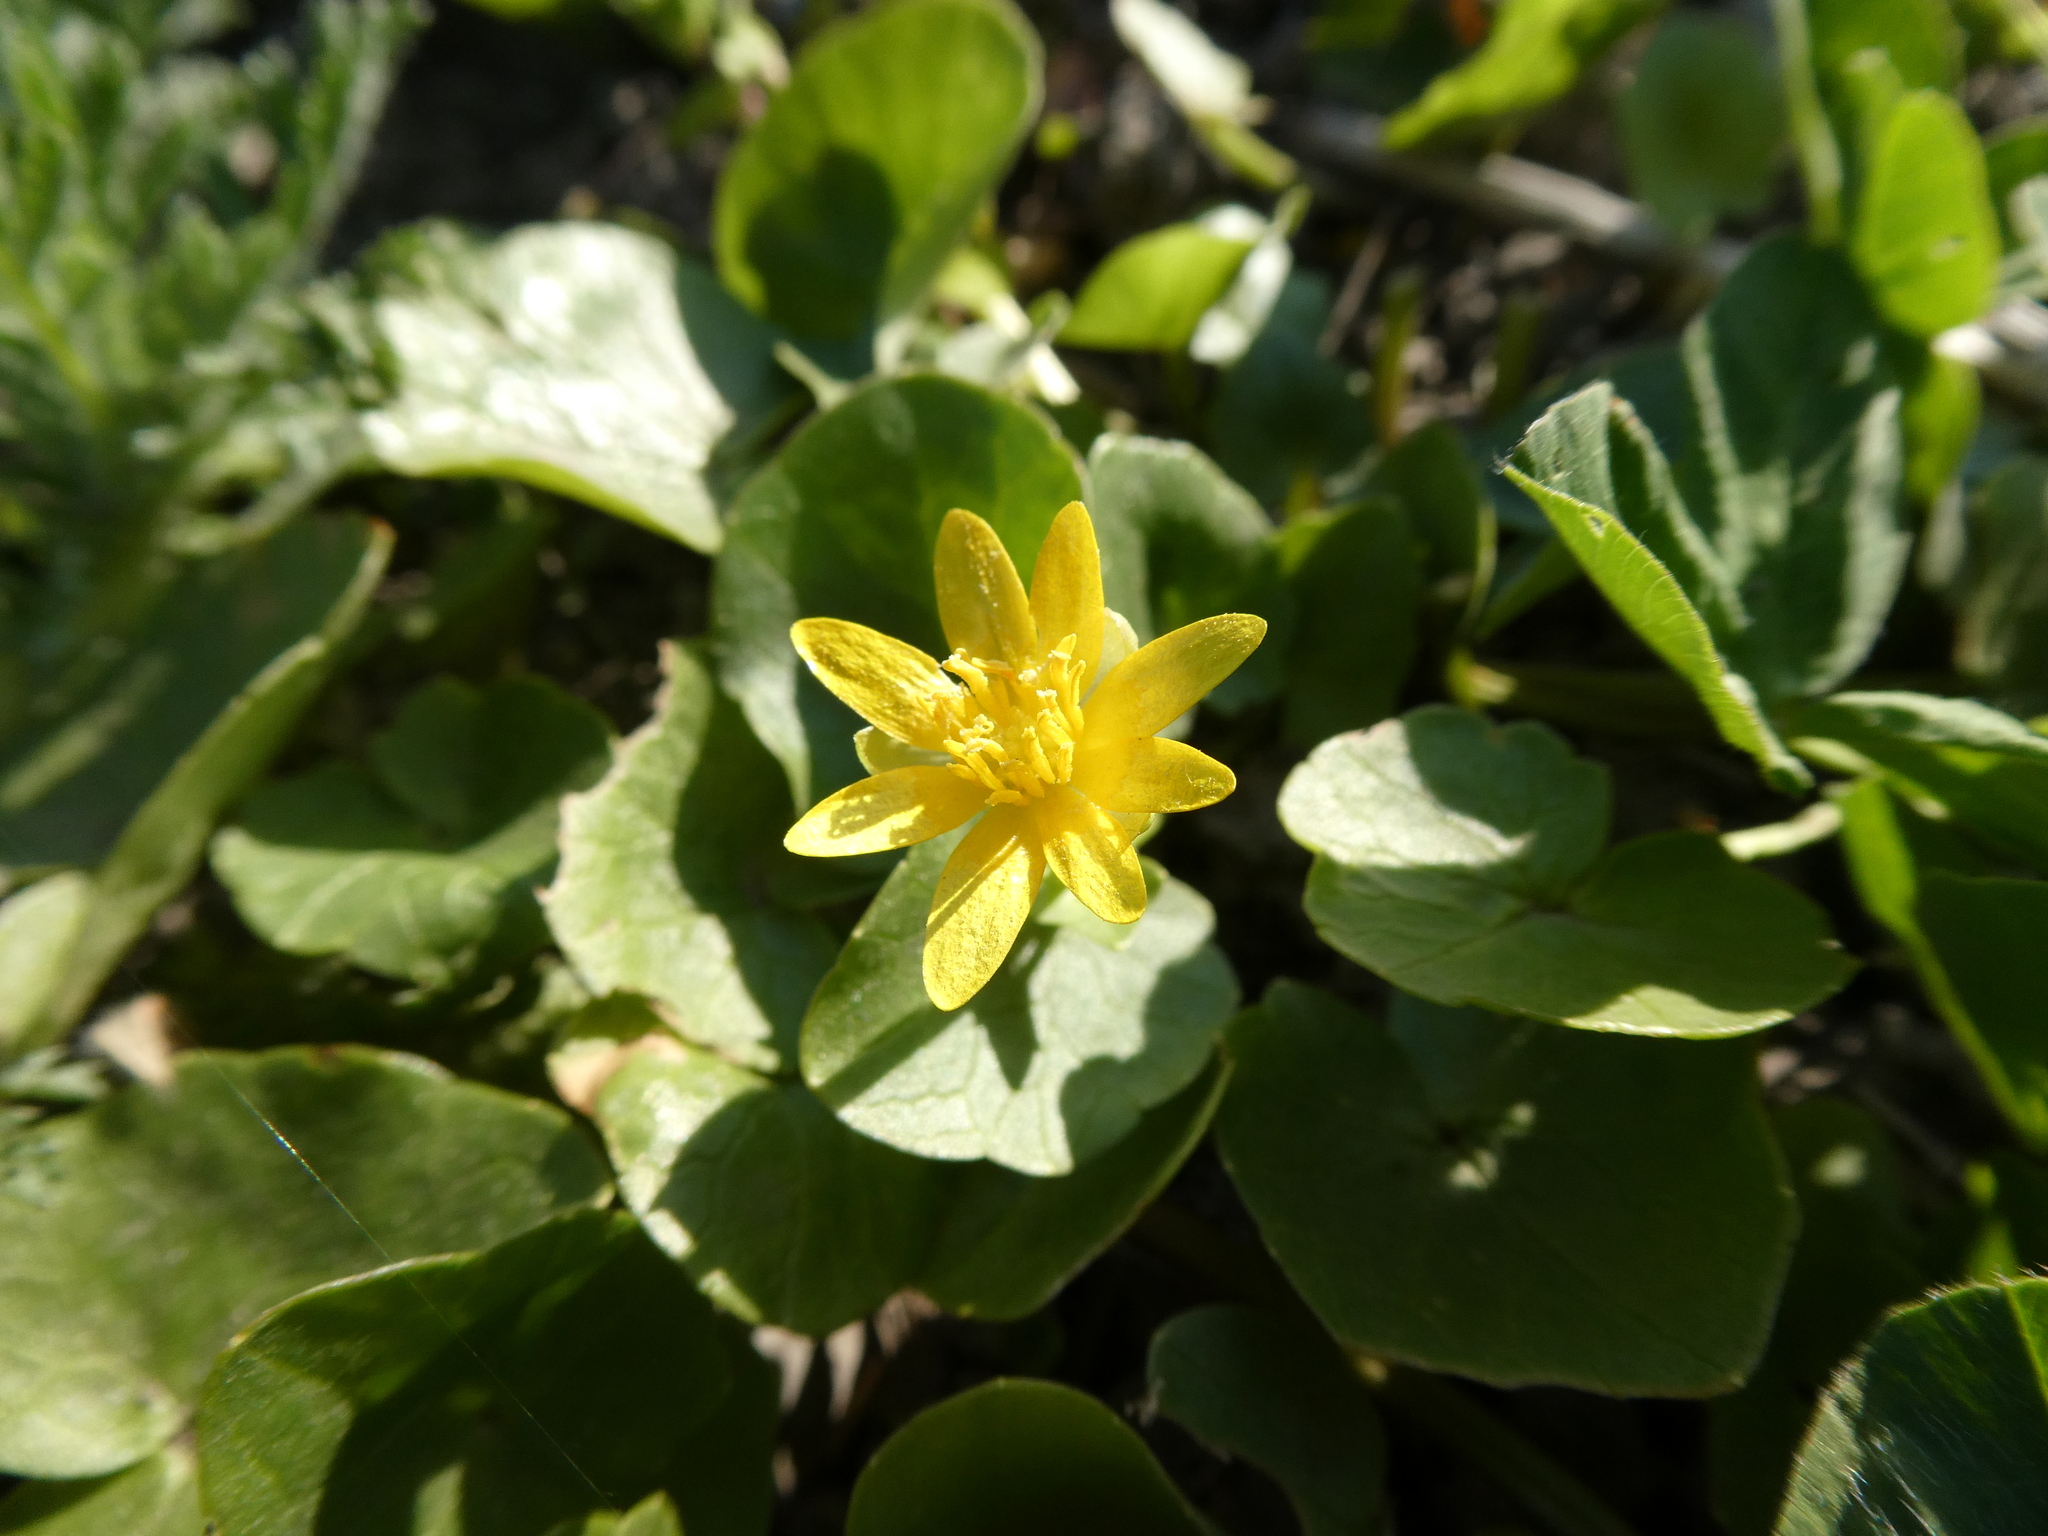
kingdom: Plantae
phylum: Tracheophyta
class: Magnoliopsida
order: Ranunculales
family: Ranunculaceae
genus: Ficaria
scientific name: Ficaria verna
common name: Lesser celandine
